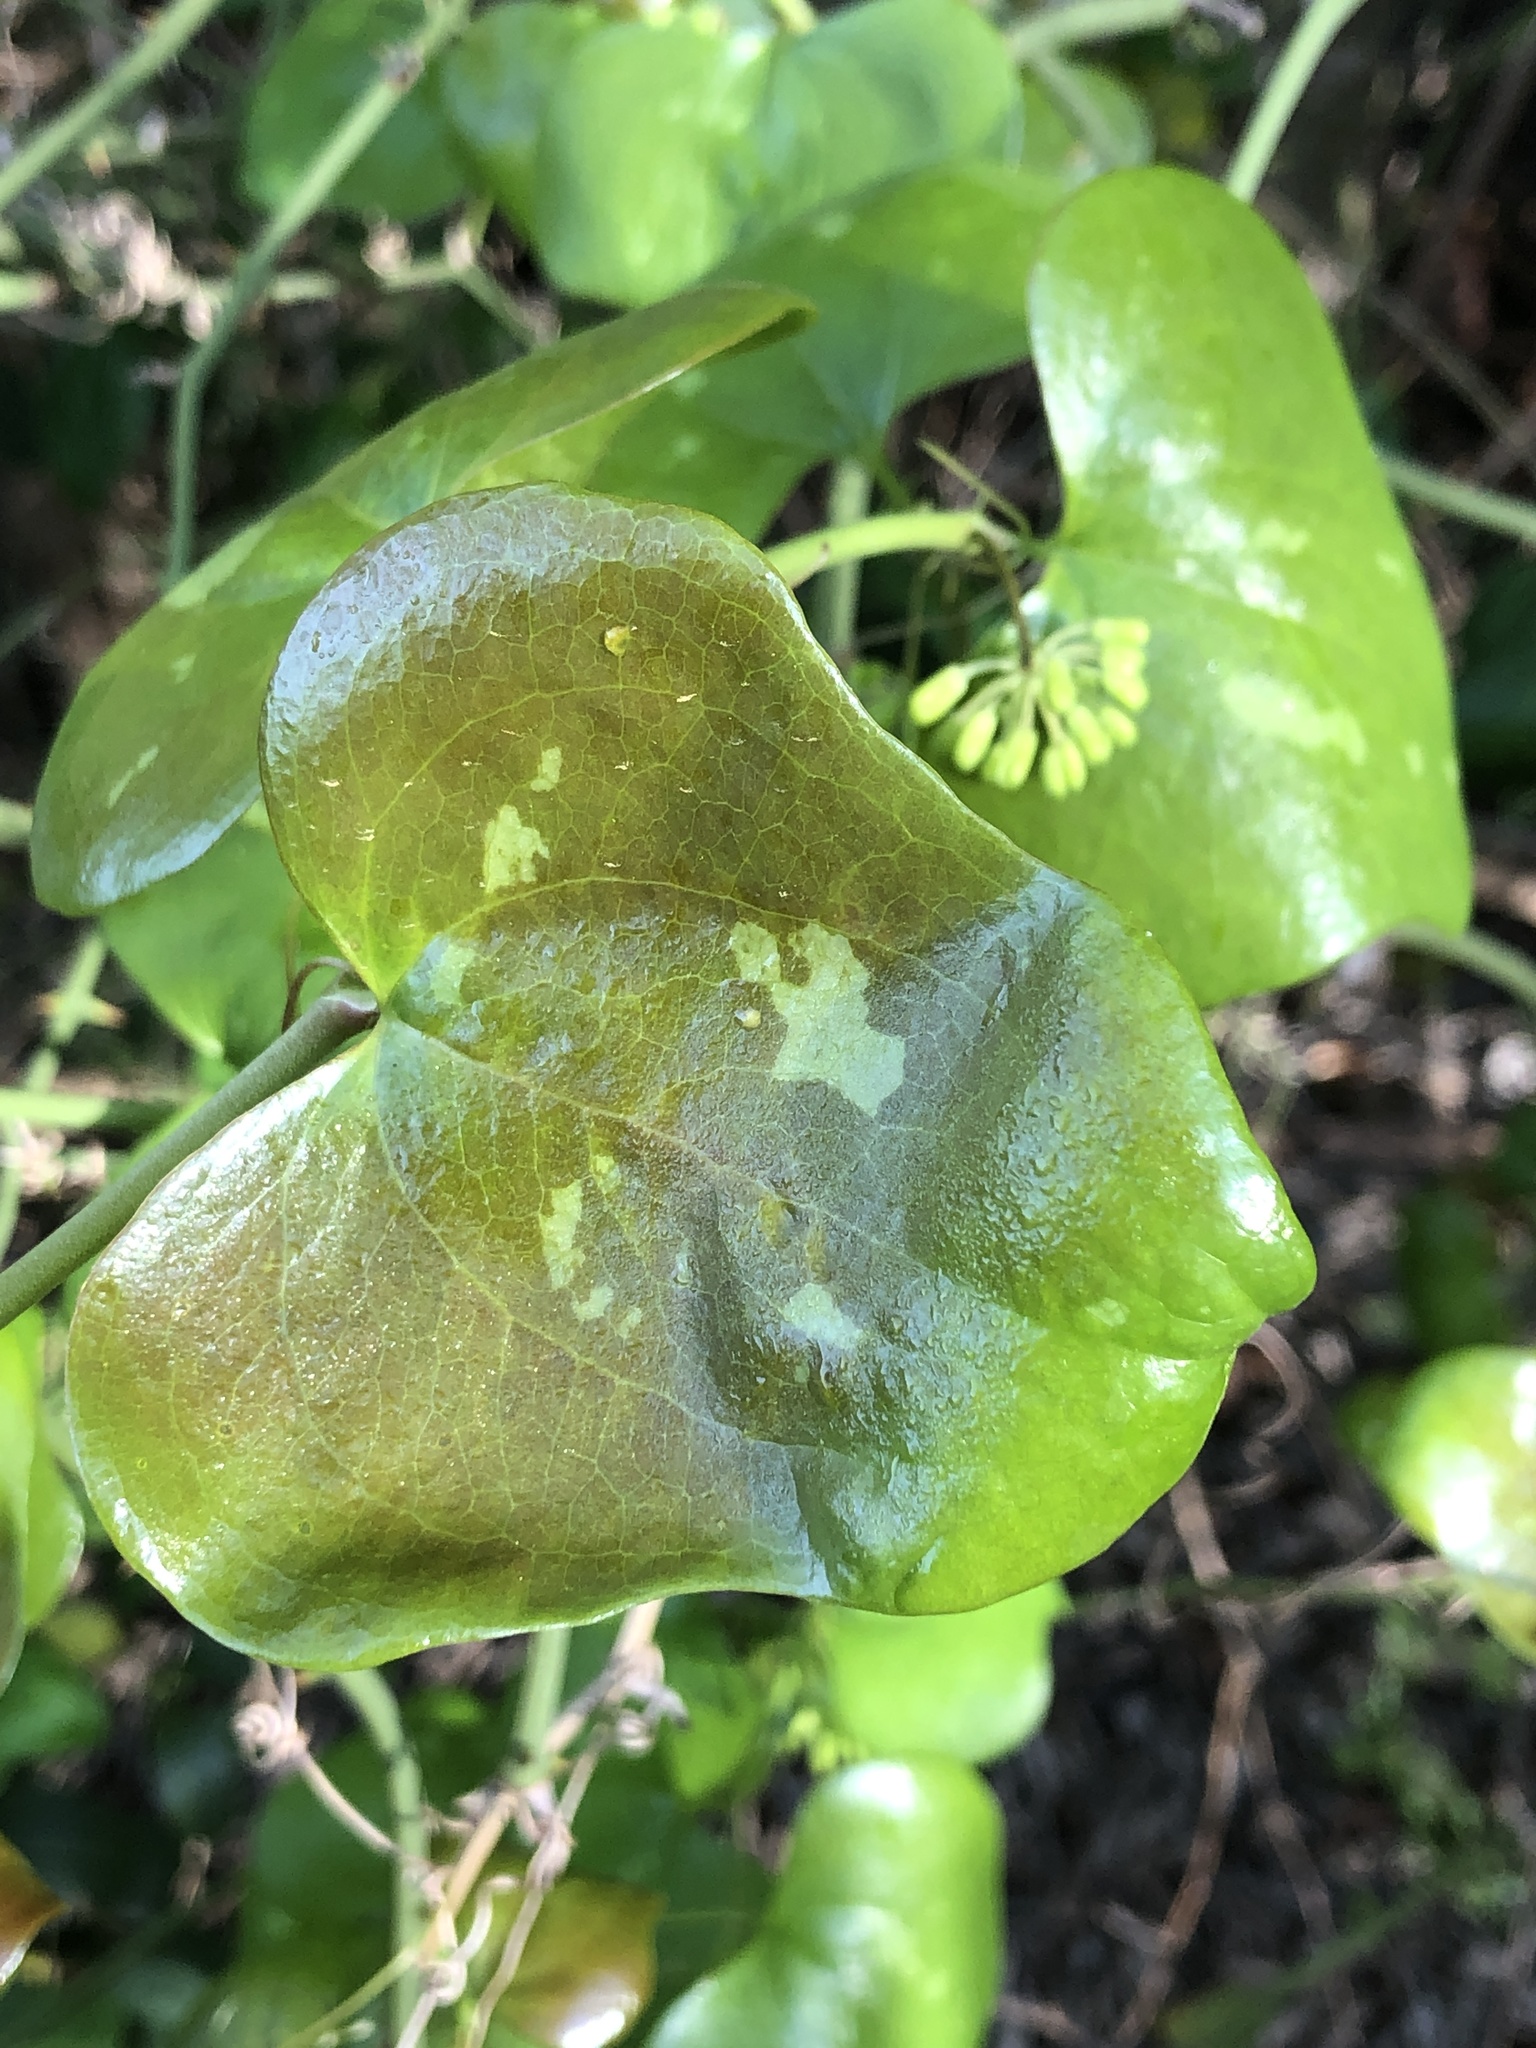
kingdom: Plantae
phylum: Tracheophyta
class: Liliopsida
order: Liliales
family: Smilacaceae
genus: Smilax
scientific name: Smilax bona-nox
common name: Catbrier
